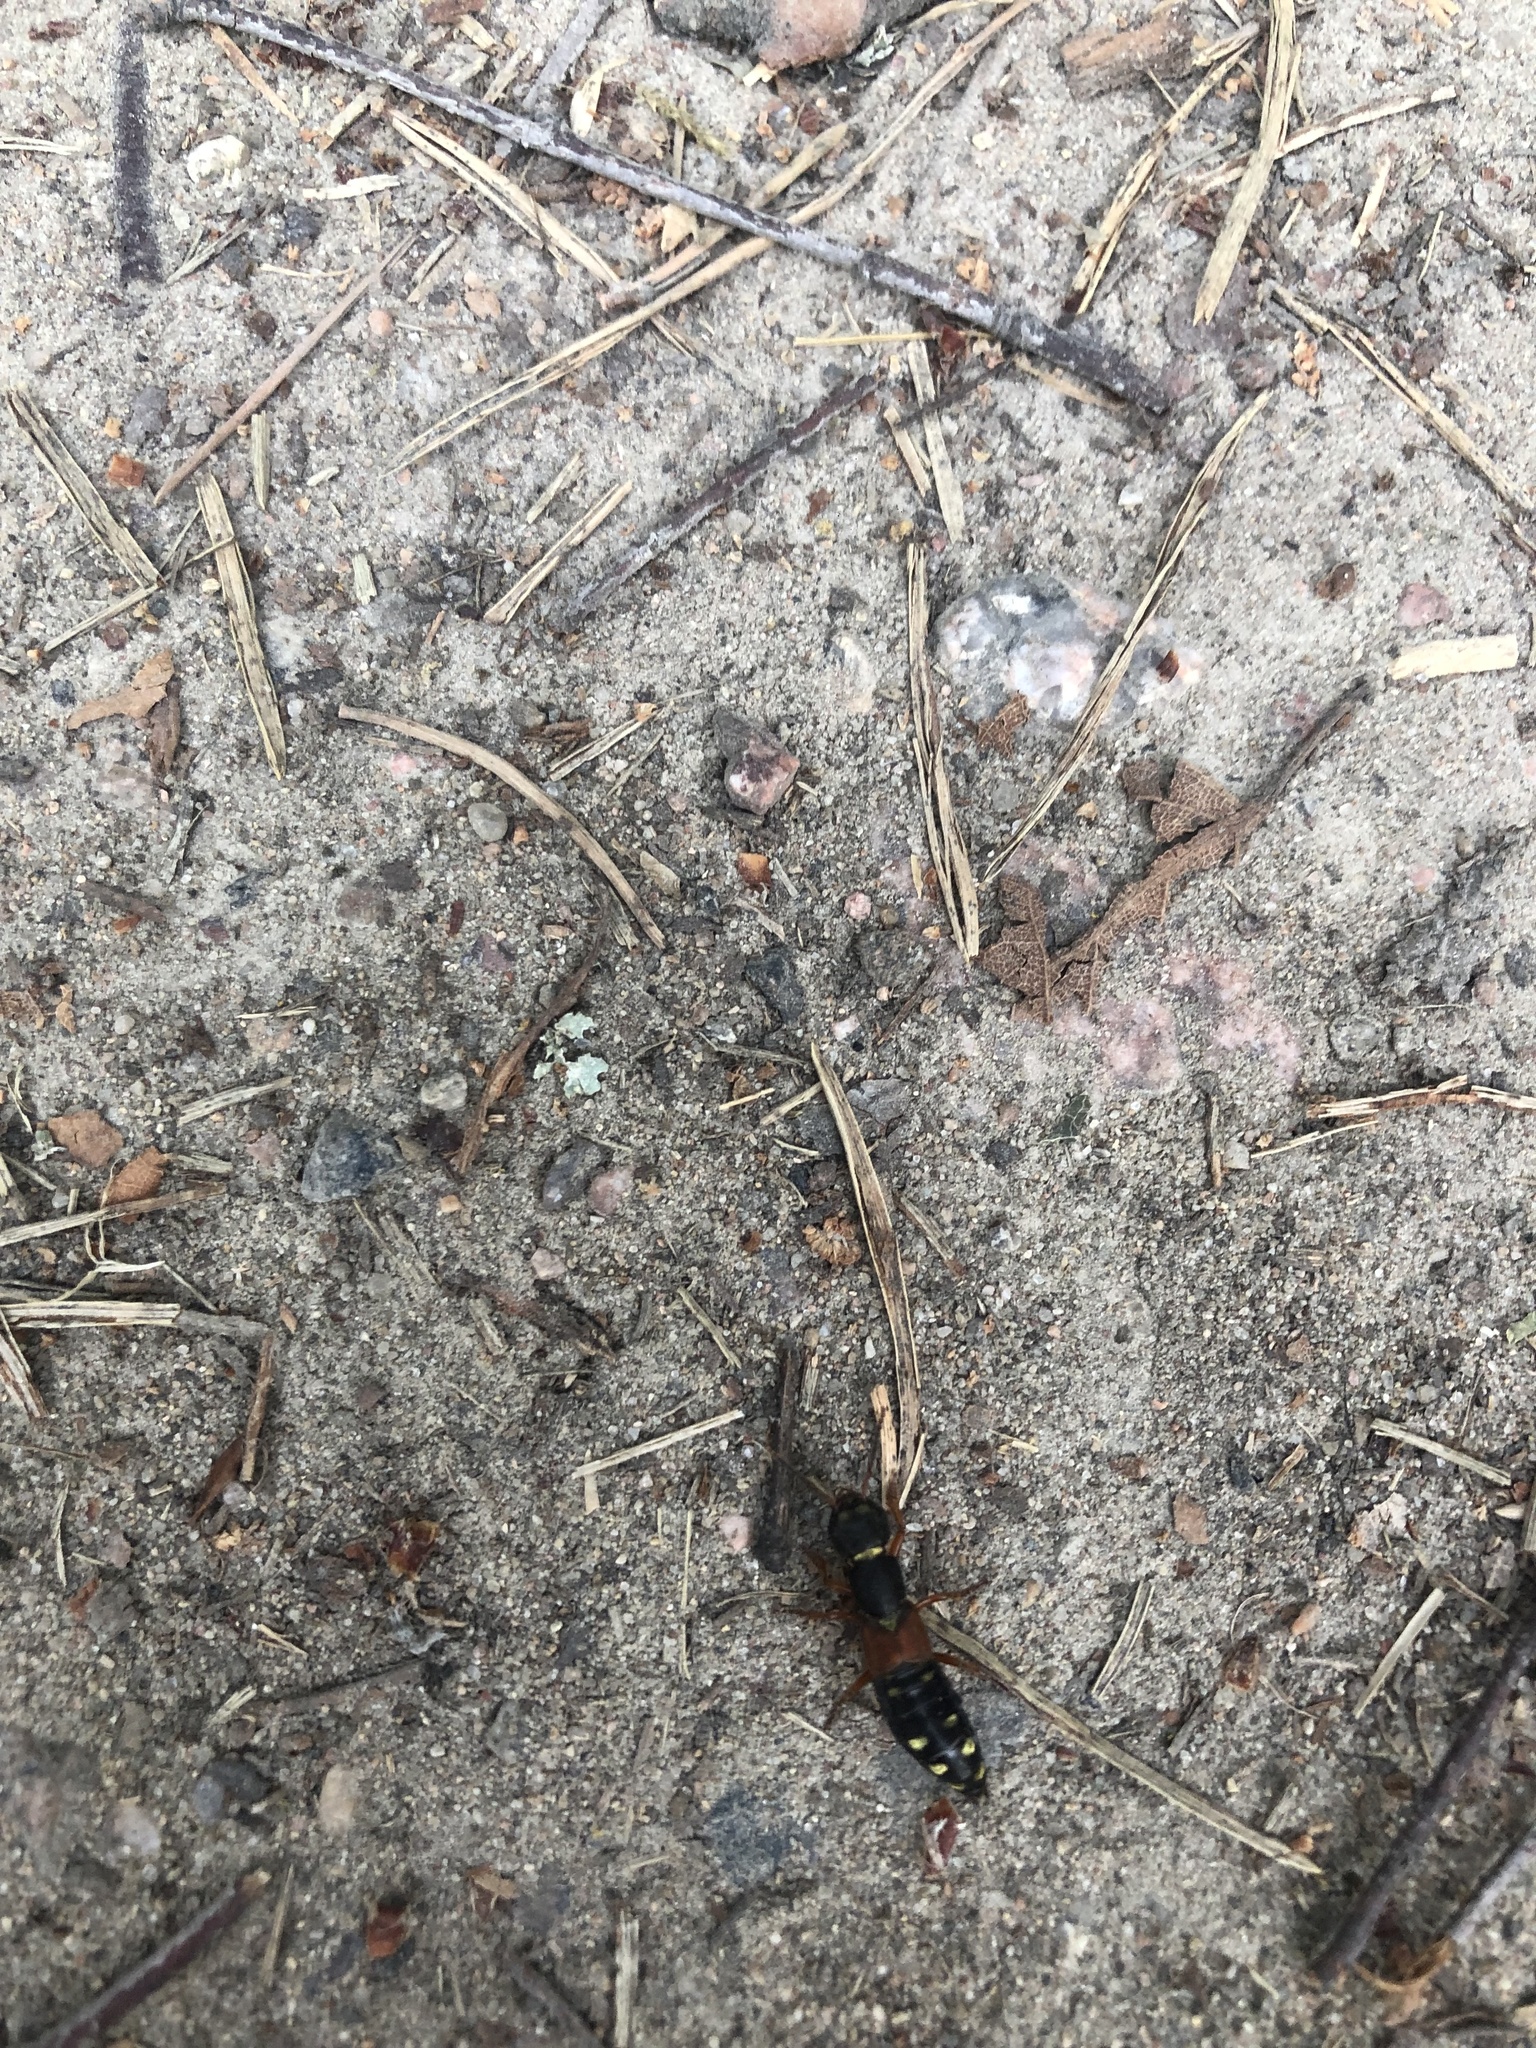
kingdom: Animalia
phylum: Arthropoda
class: Insecta
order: Coleoptera
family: Staphylinidae
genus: Staphylinus
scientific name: Staphylinus erythropterus
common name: Staph beetle
